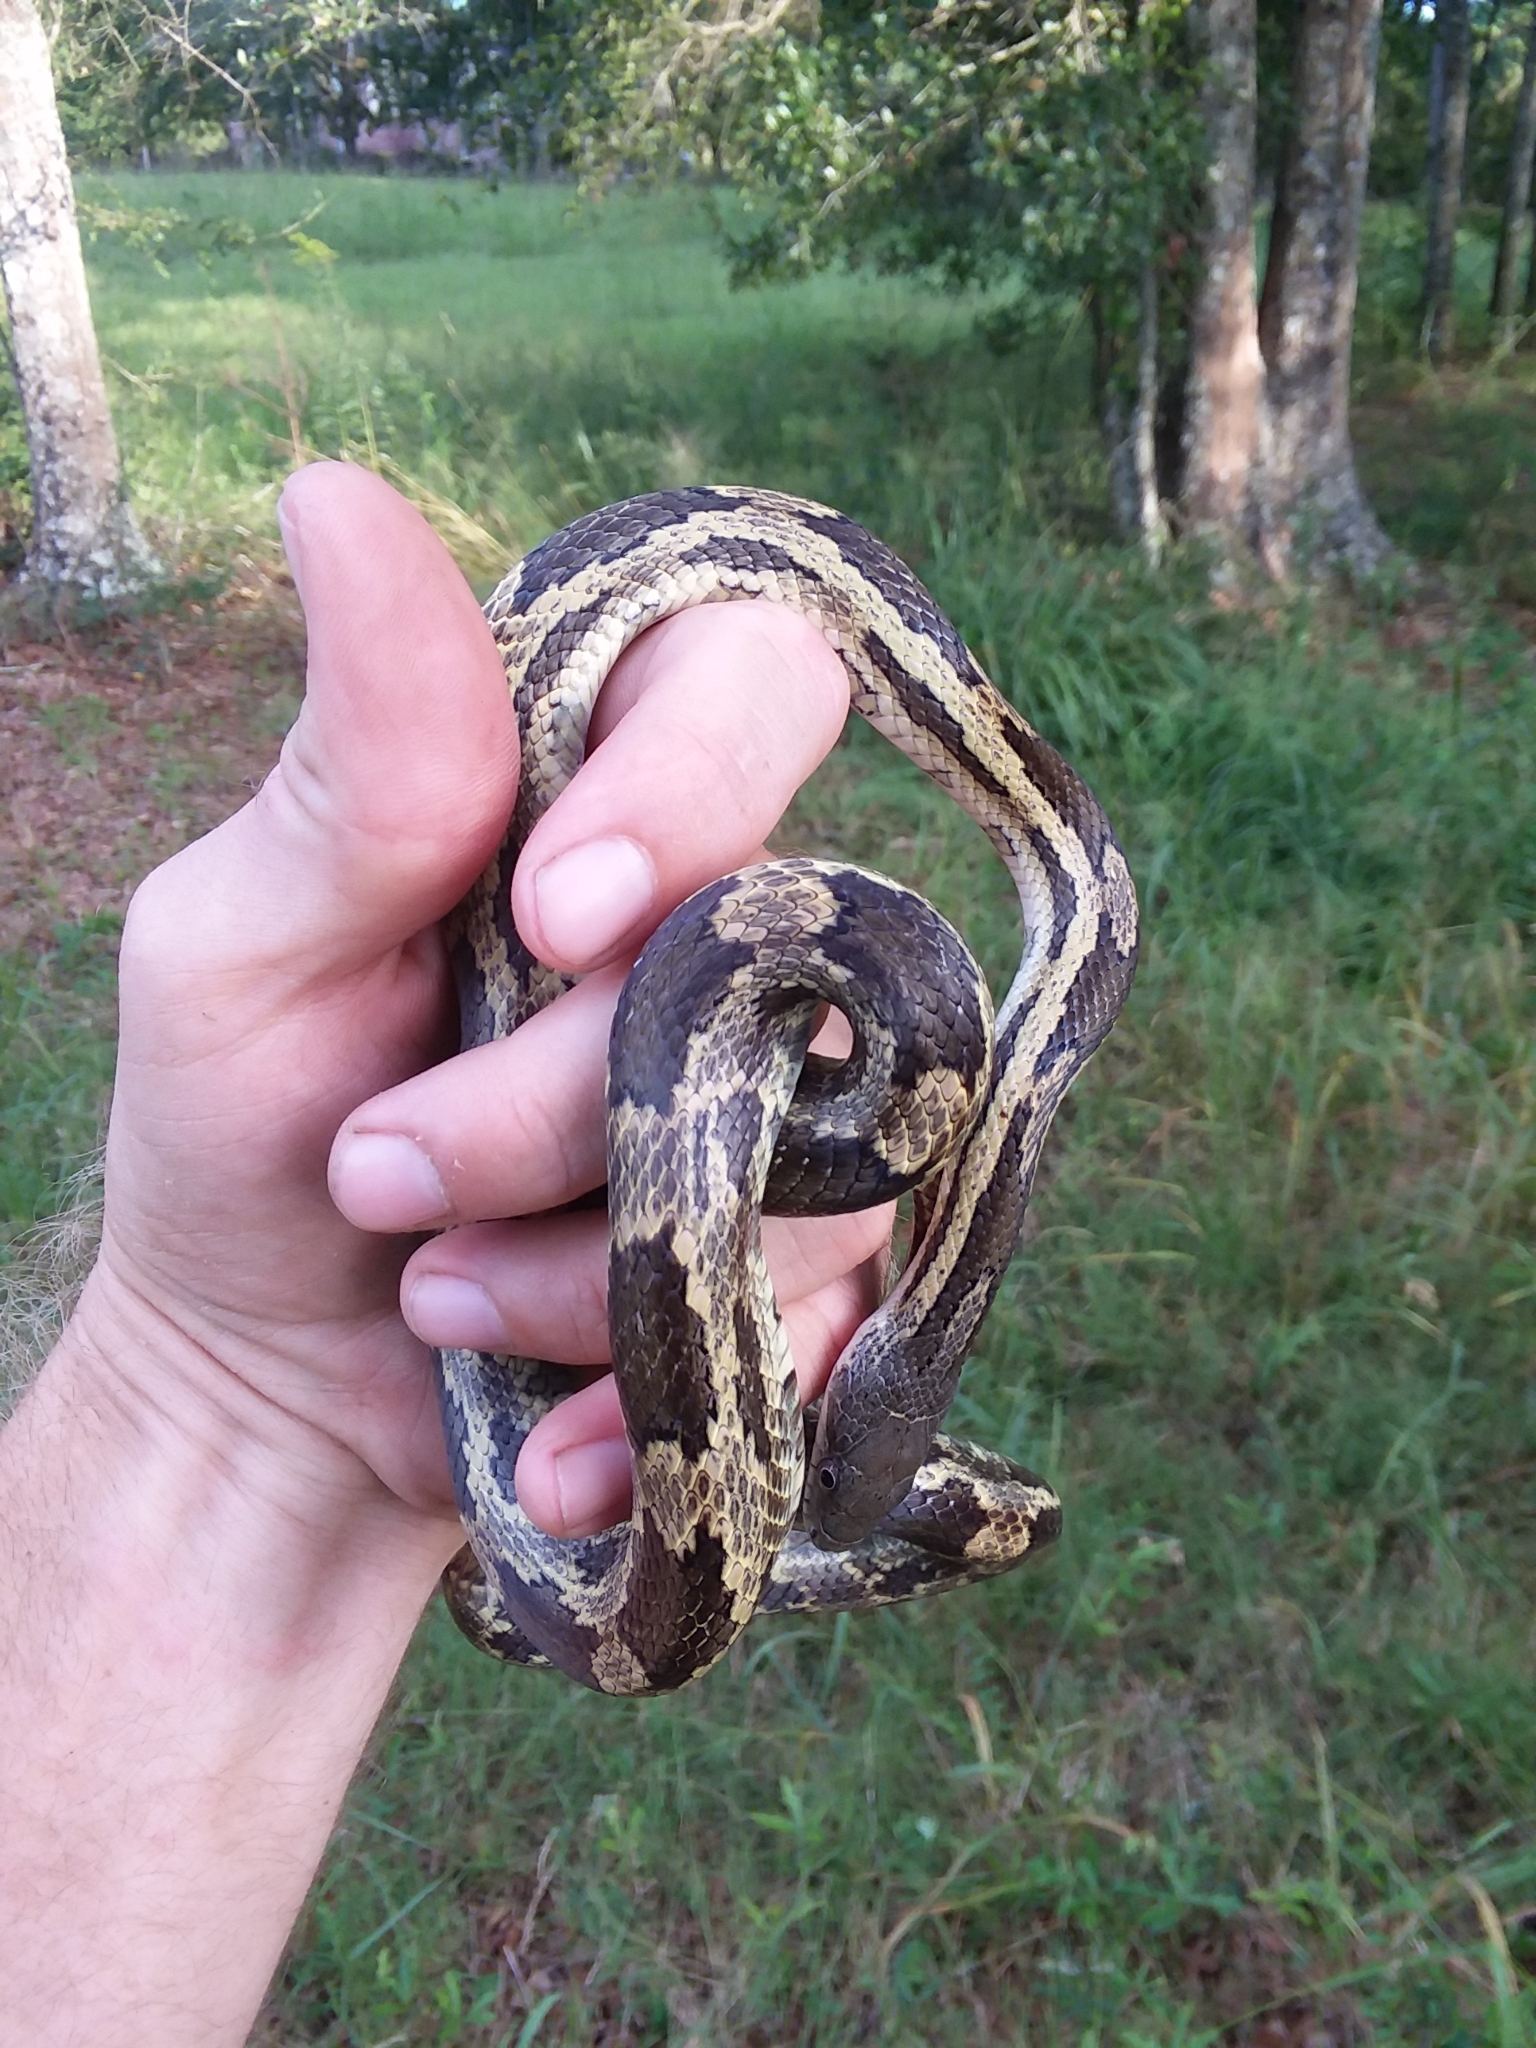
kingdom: Animalia
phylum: Chordata
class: Squamata
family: Colubridae
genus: Pantherophis
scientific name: Pantherophis spiloides
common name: Gray rat snake
